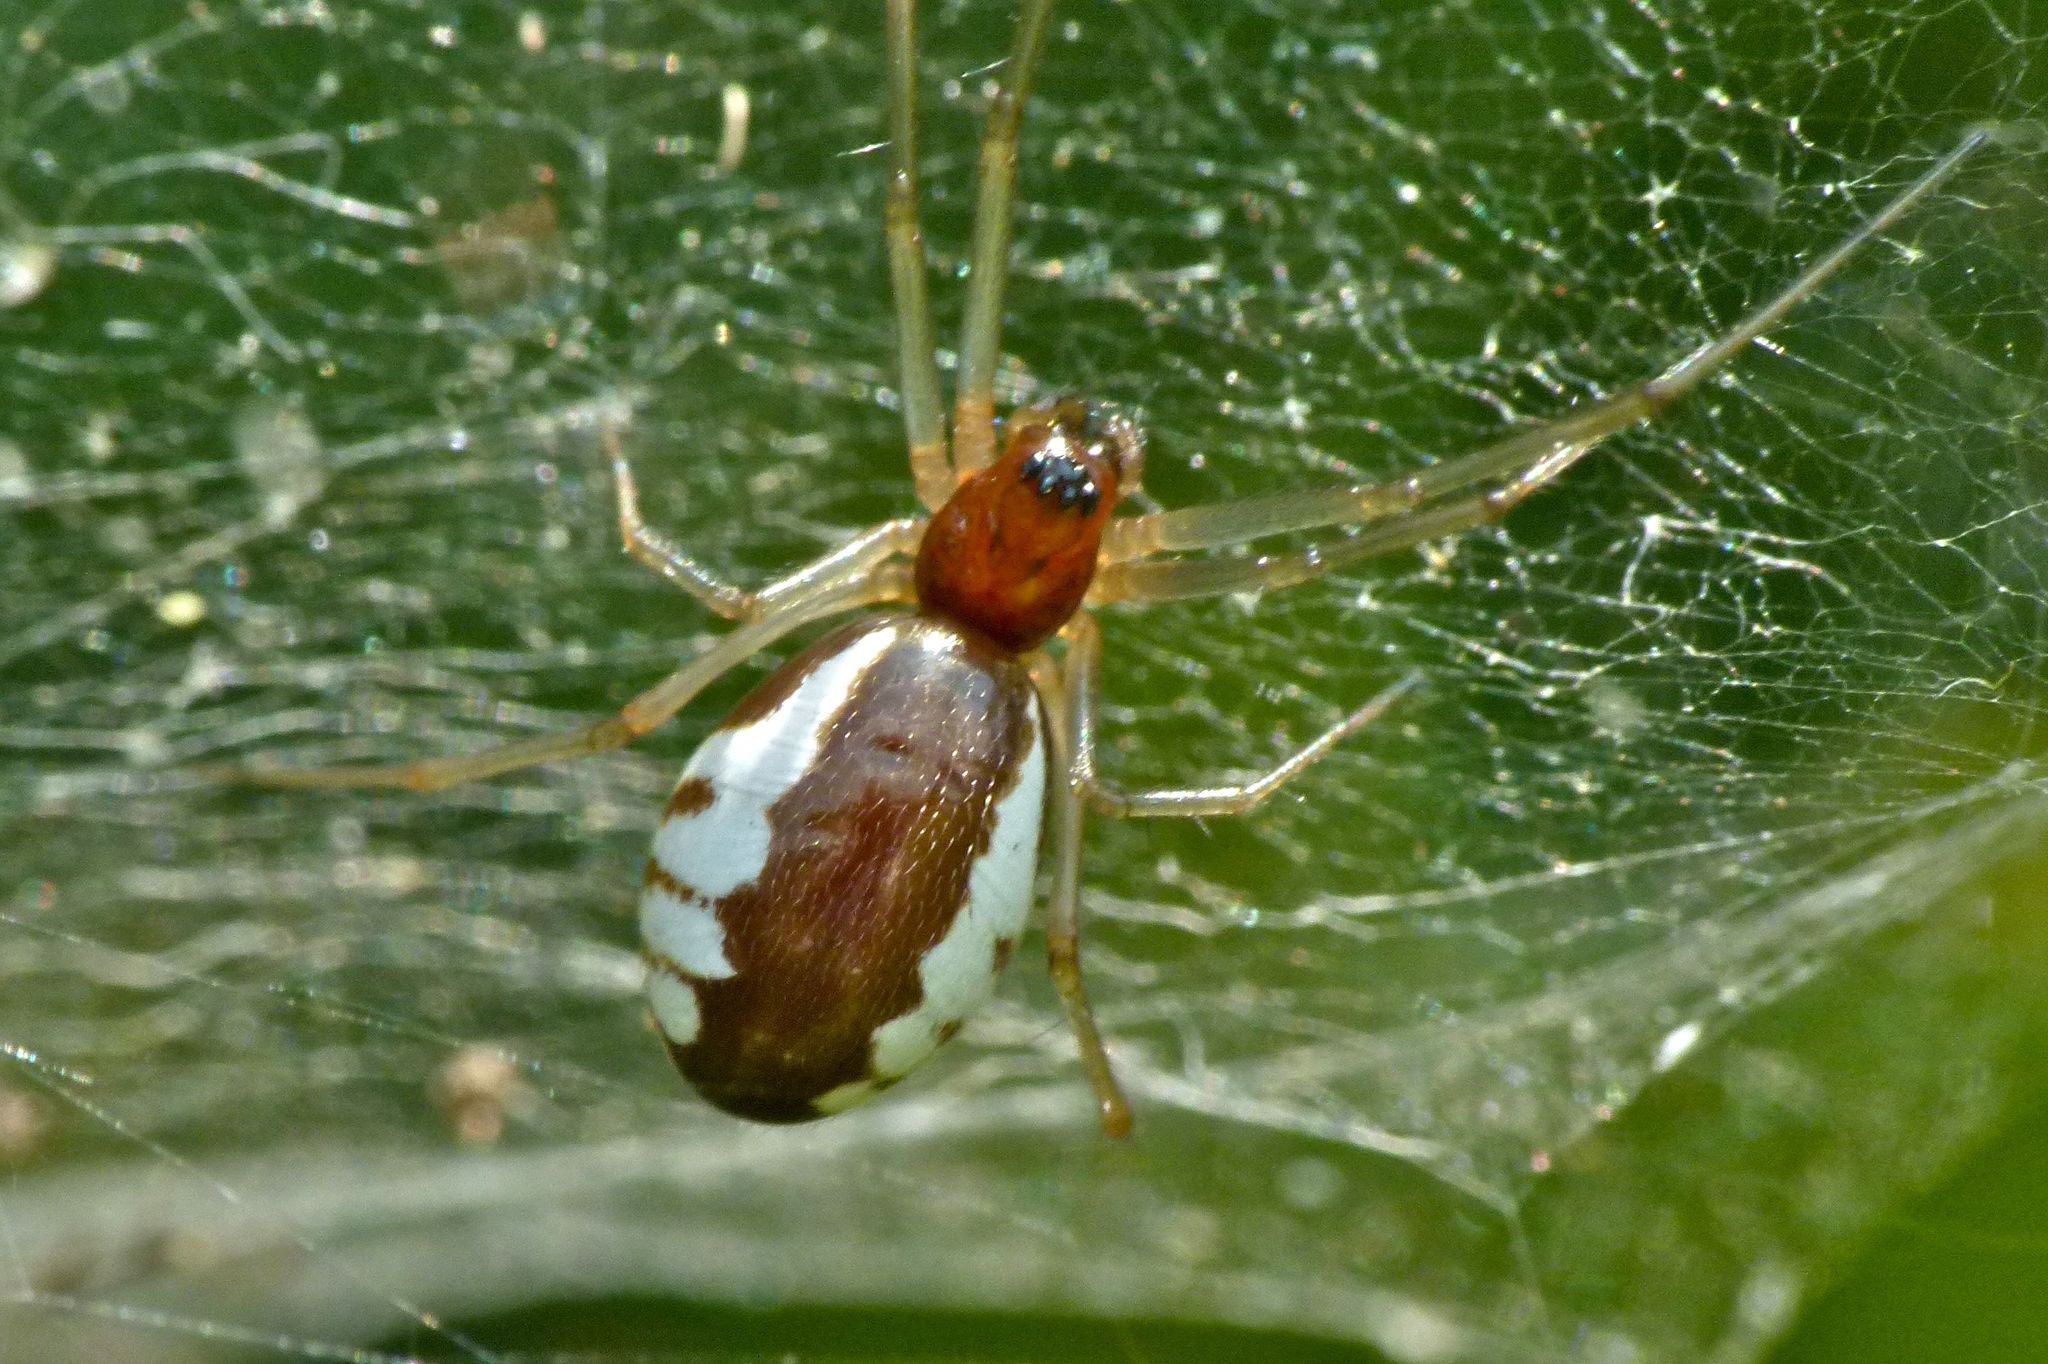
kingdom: Animalia
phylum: Arthropoda
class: Arachnida
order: Araneae
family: Linyphiidae
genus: Frontinella
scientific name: Frontinella pyramitela
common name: Bowl-and-doily spider
